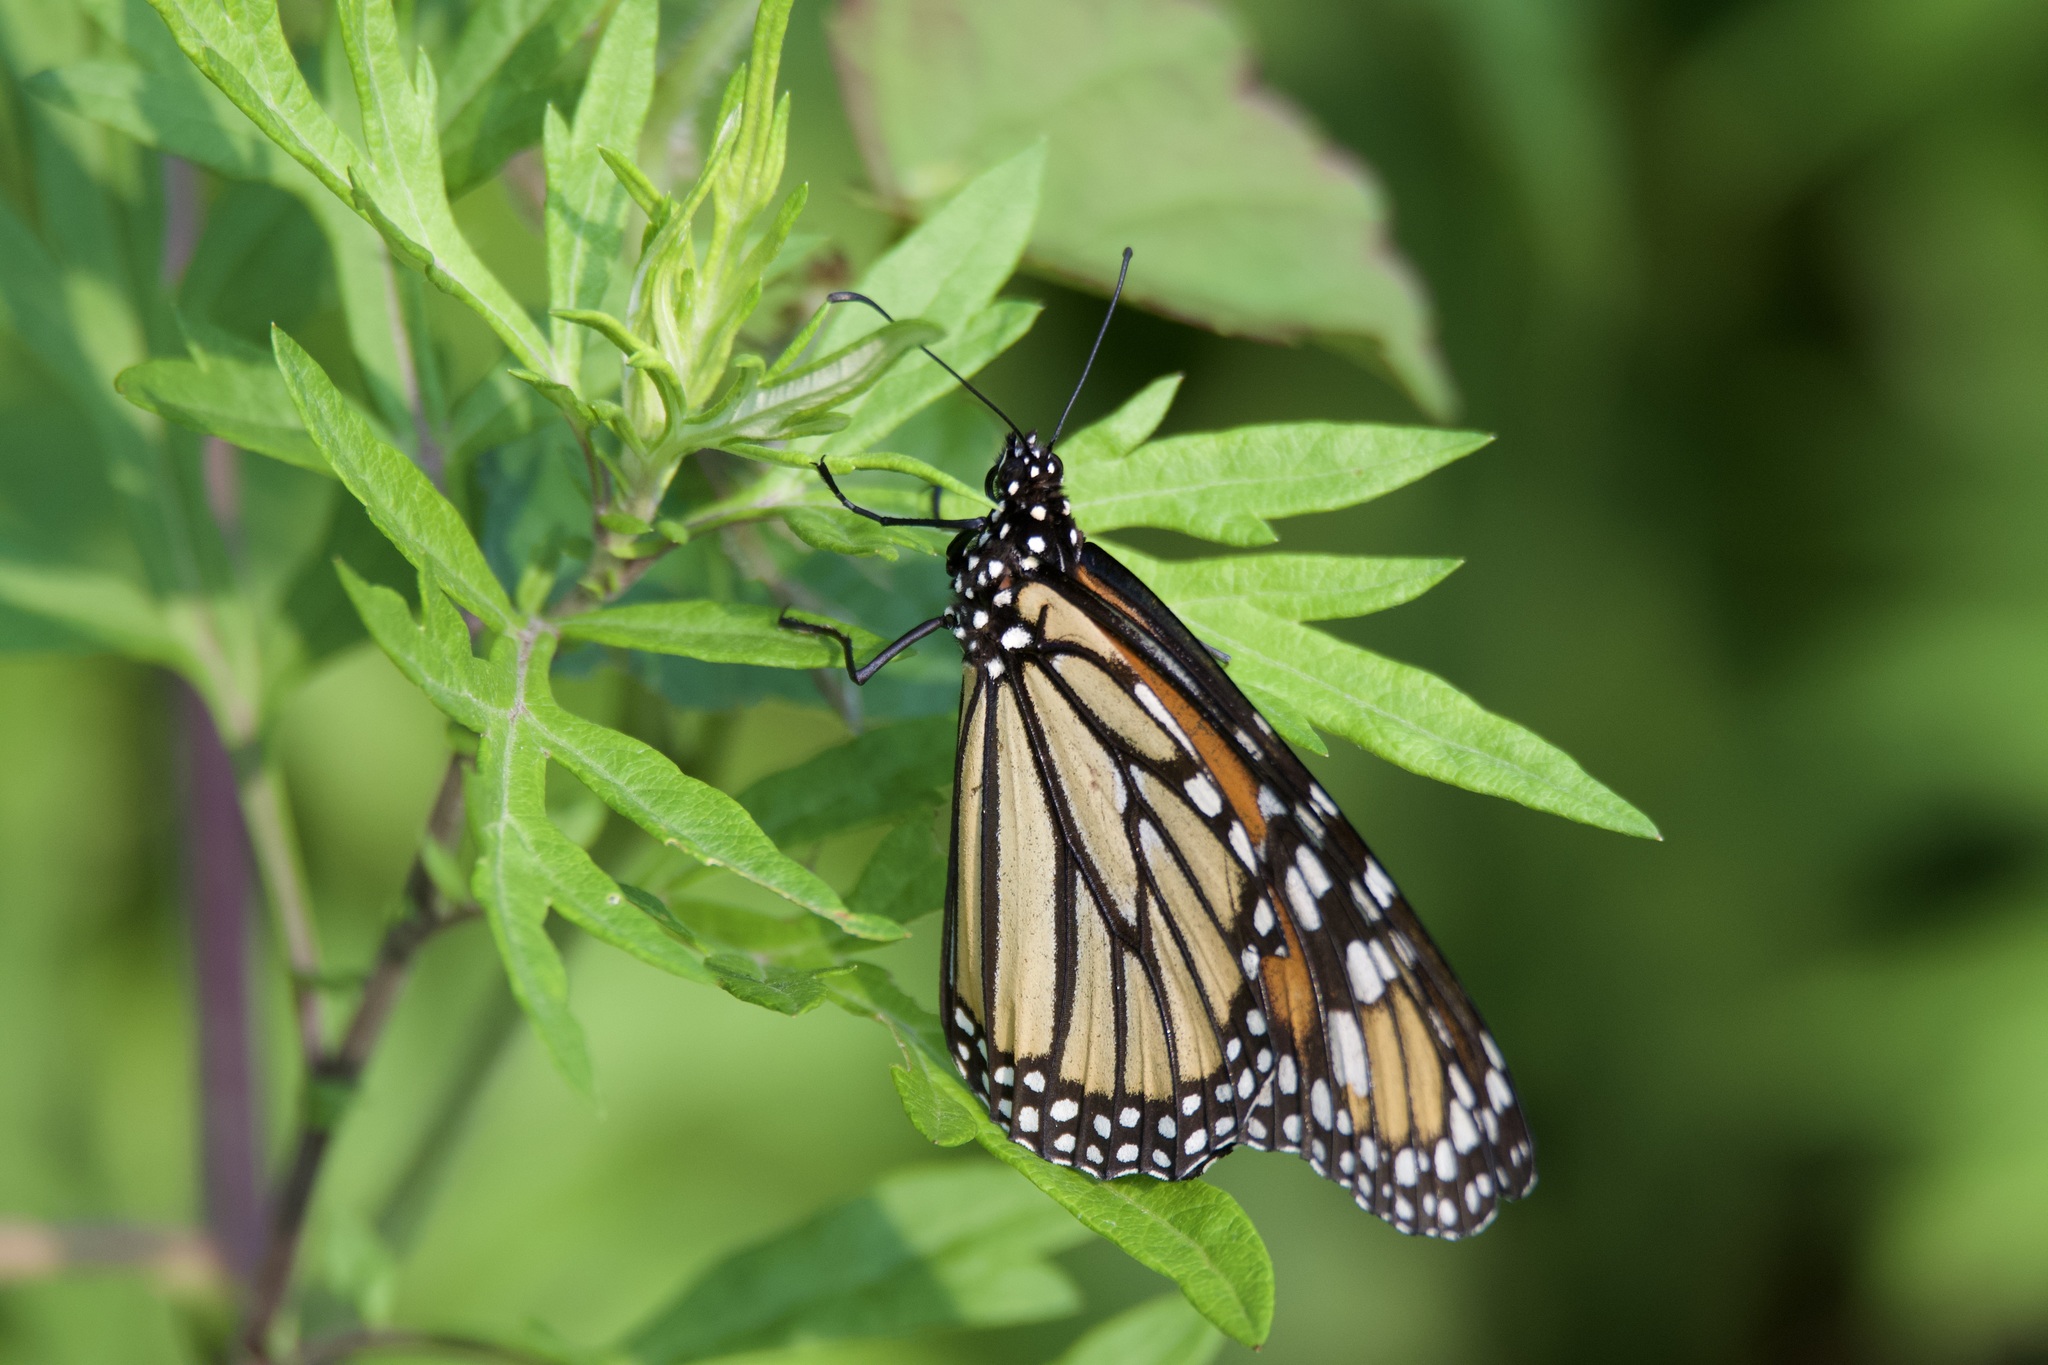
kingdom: Animalia
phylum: Arthropoda
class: Insecta
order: Lepidoptera
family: Nymphalidae
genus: Danaus
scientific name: Danaus plexippus
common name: Monarch
